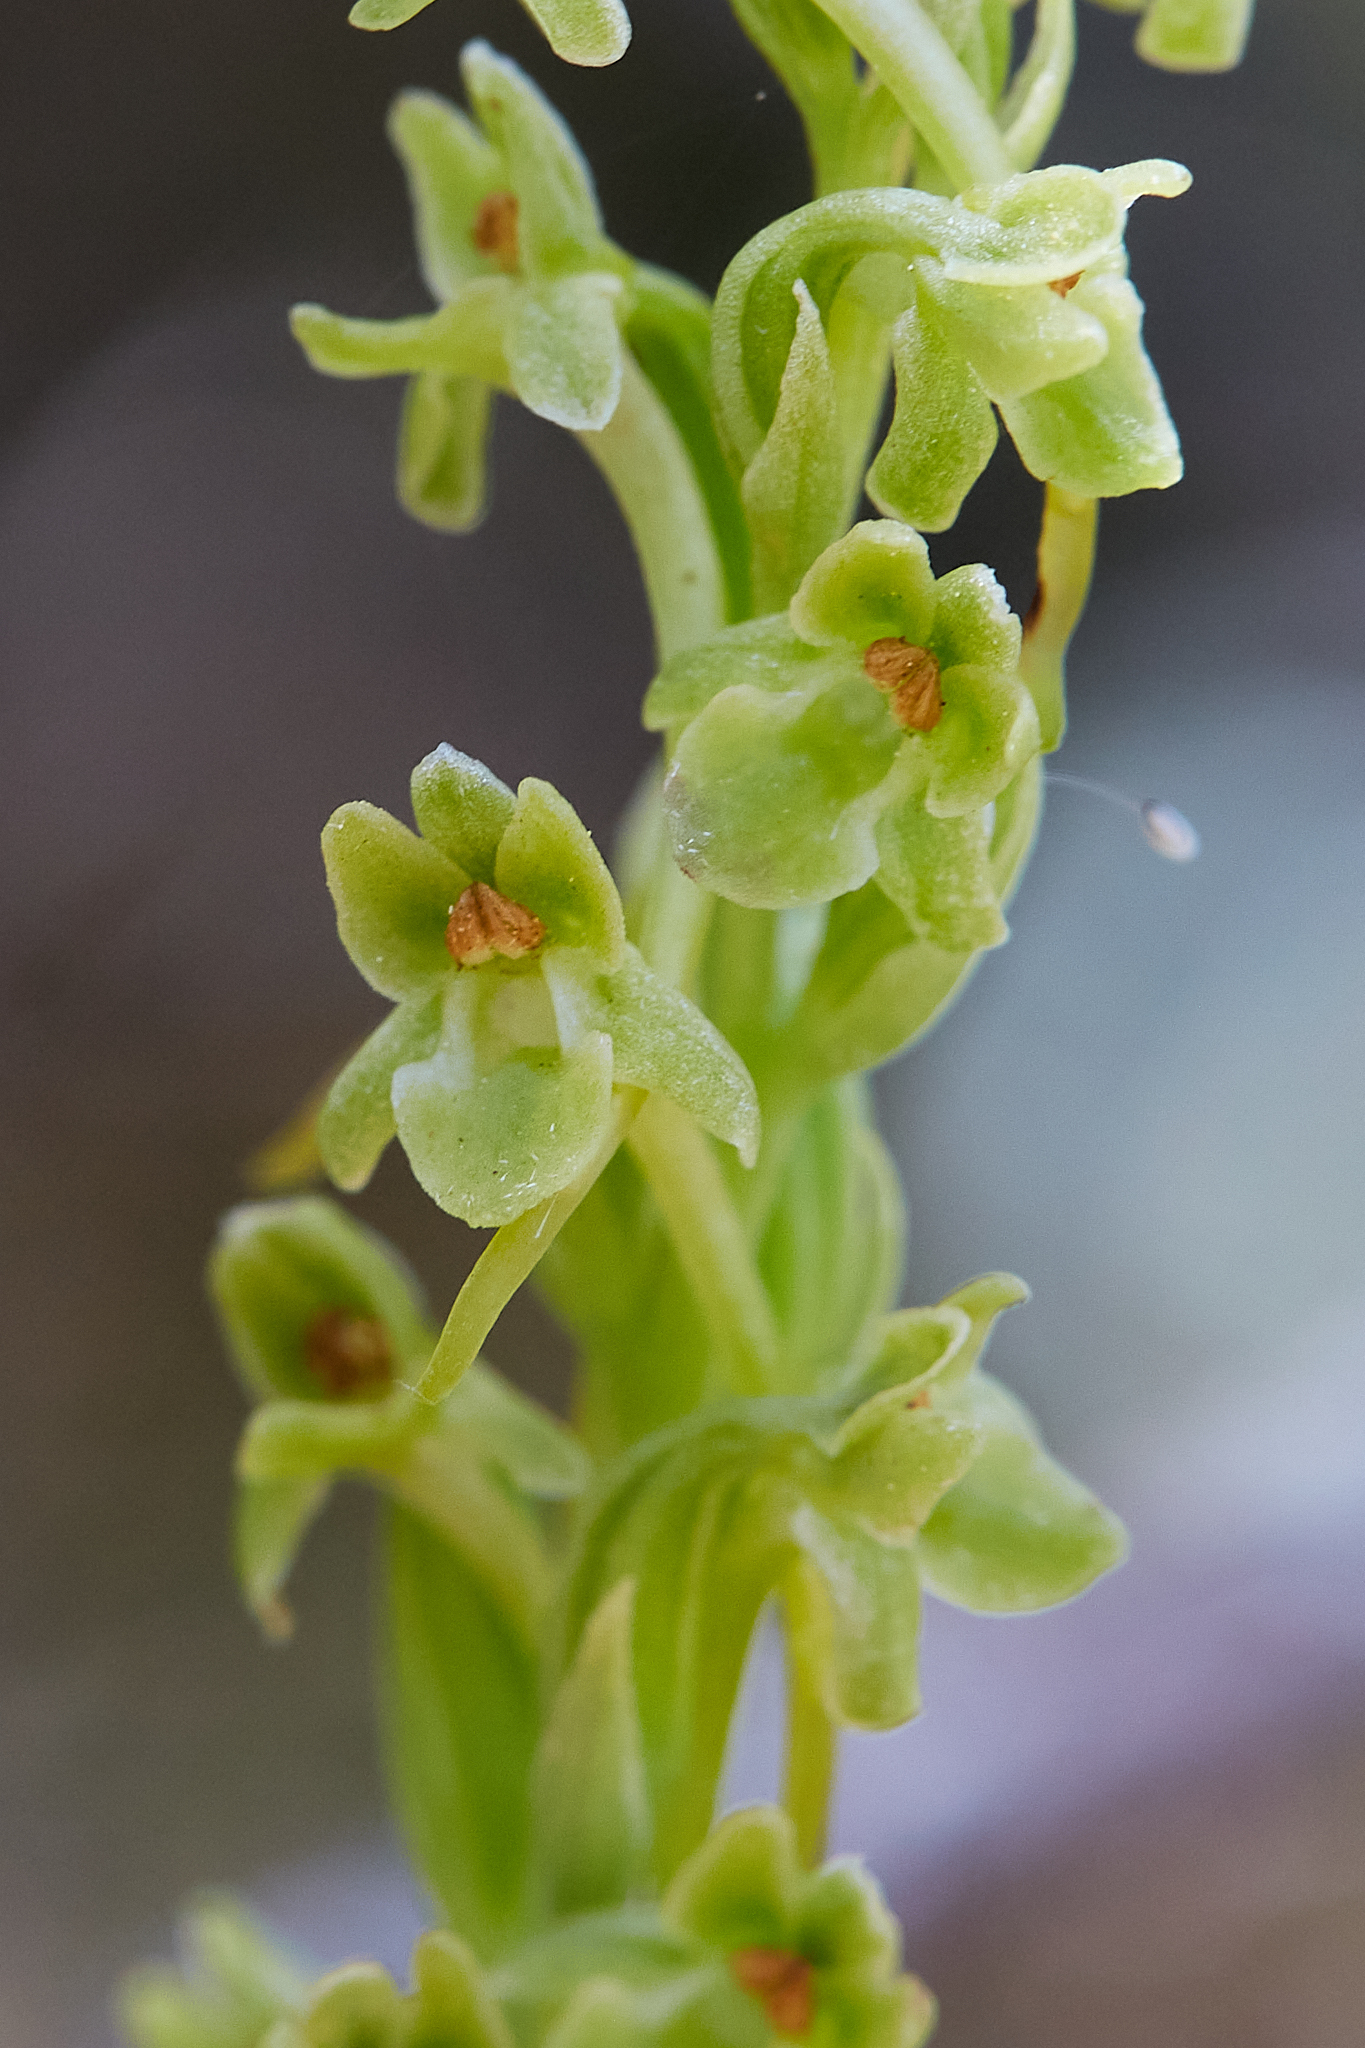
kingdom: Plantae
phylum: Tracheophyta
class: Liliopsida
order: Asparagales
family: Orchidaceae
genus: Platanthera
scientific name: Platanthera michaelii
